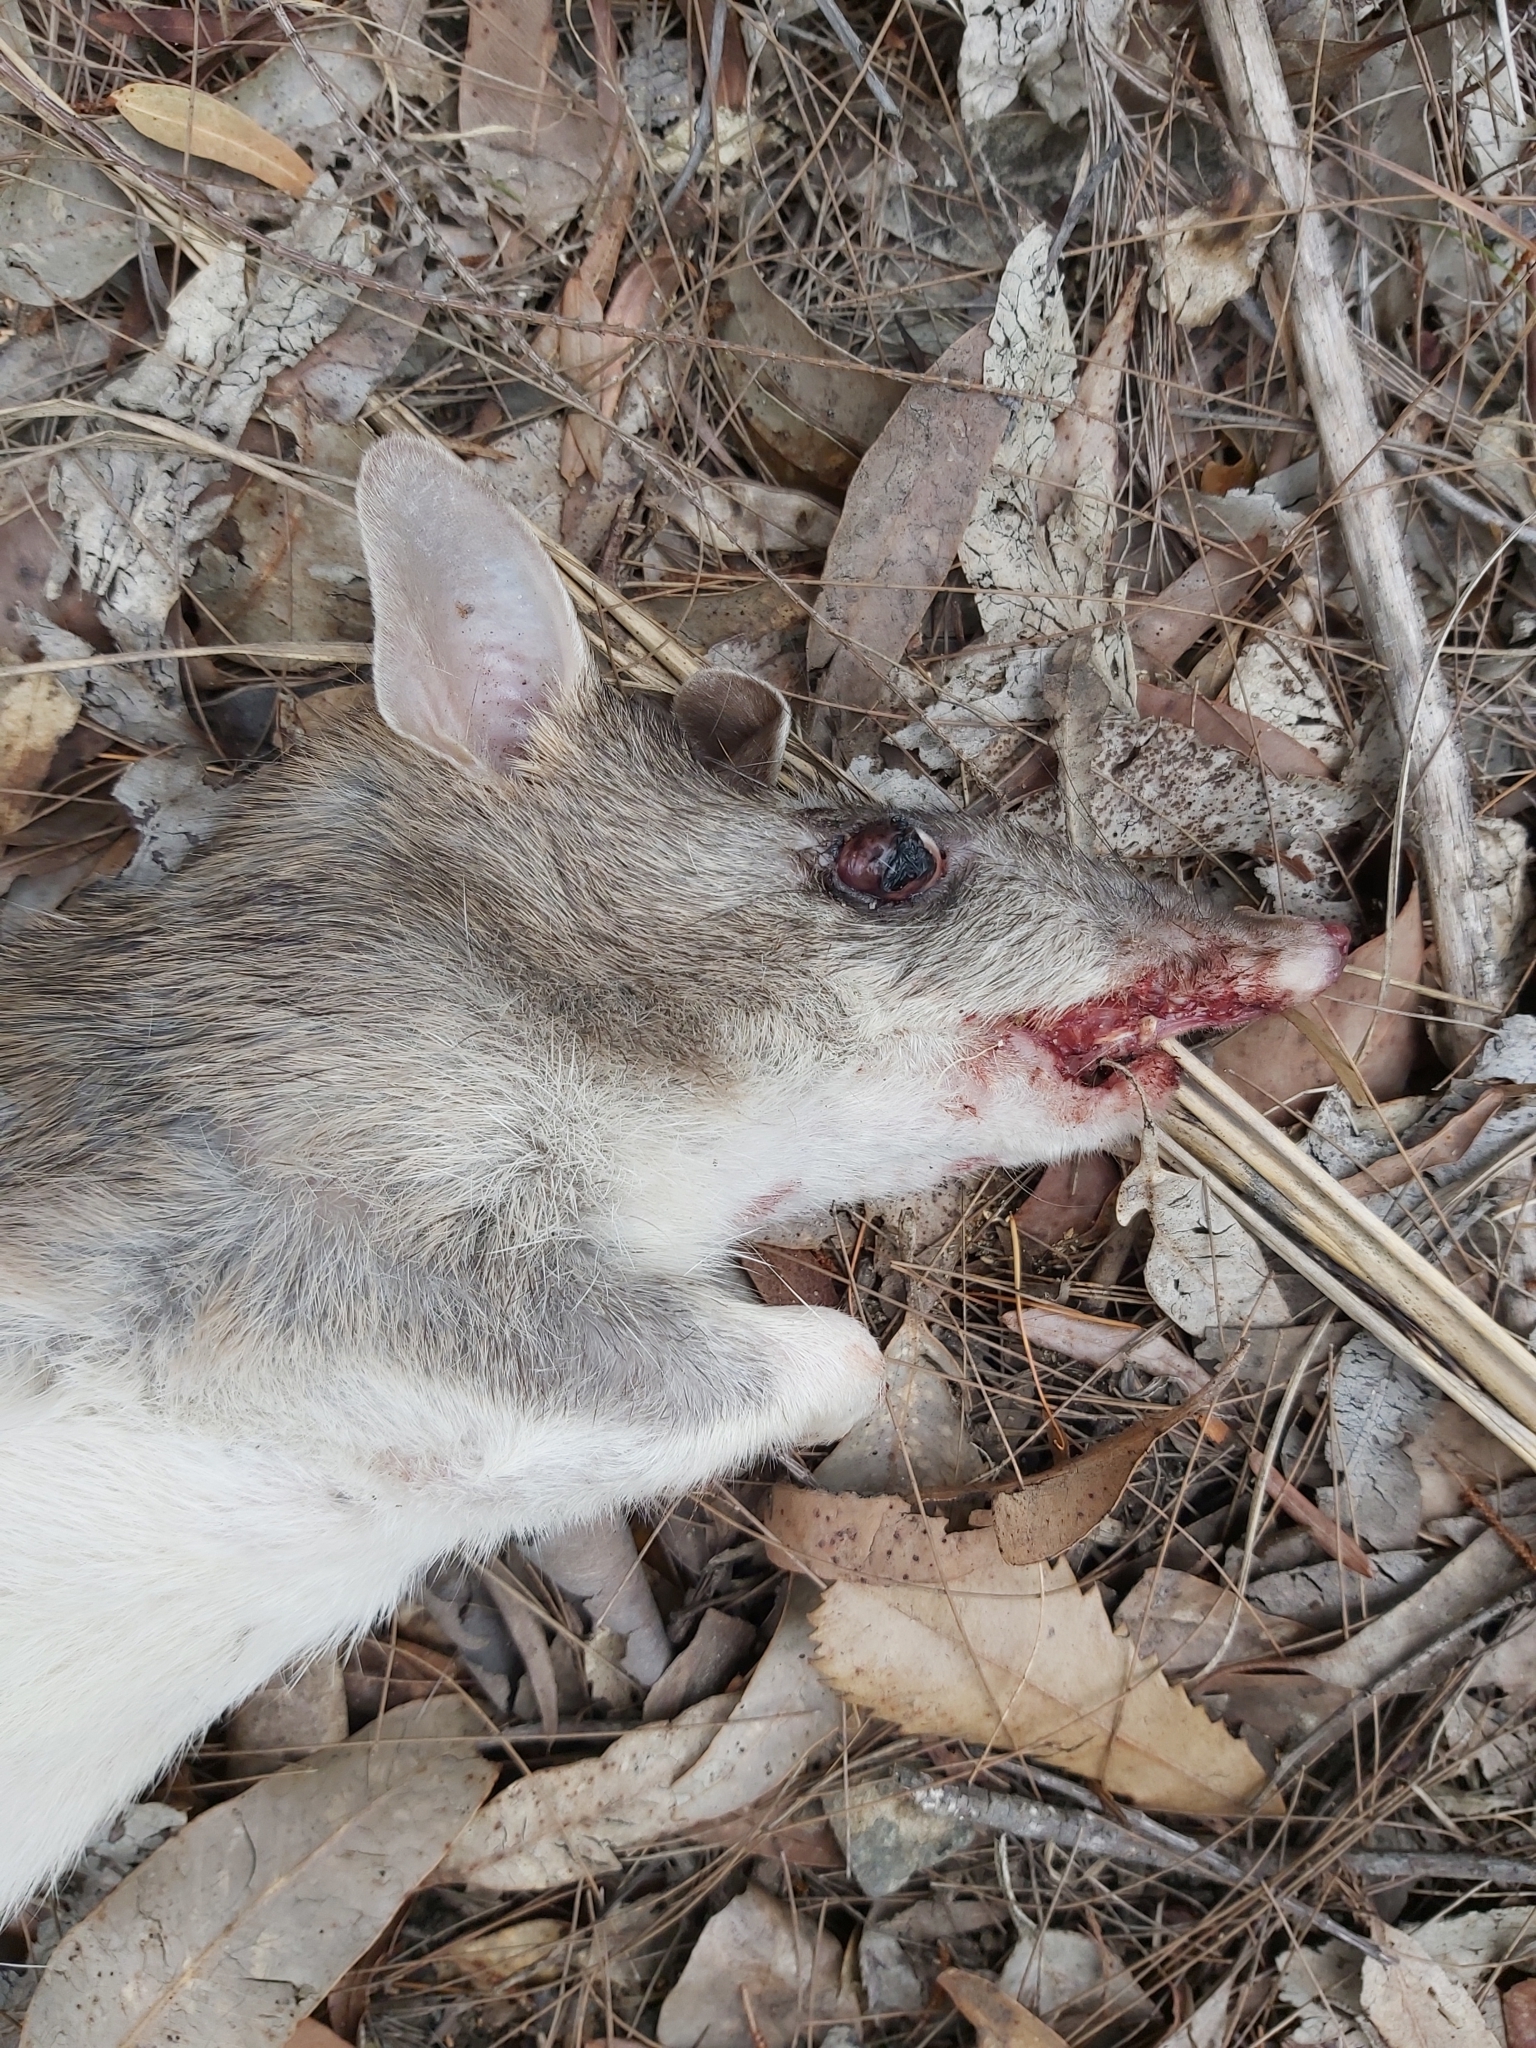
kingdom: Animalia
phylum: Chordata
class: Mammalia
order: Peramelemorphia
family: Peramelidae
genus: Perameles
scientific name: Perameles nasuta
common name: Long-nosed bandicoot
